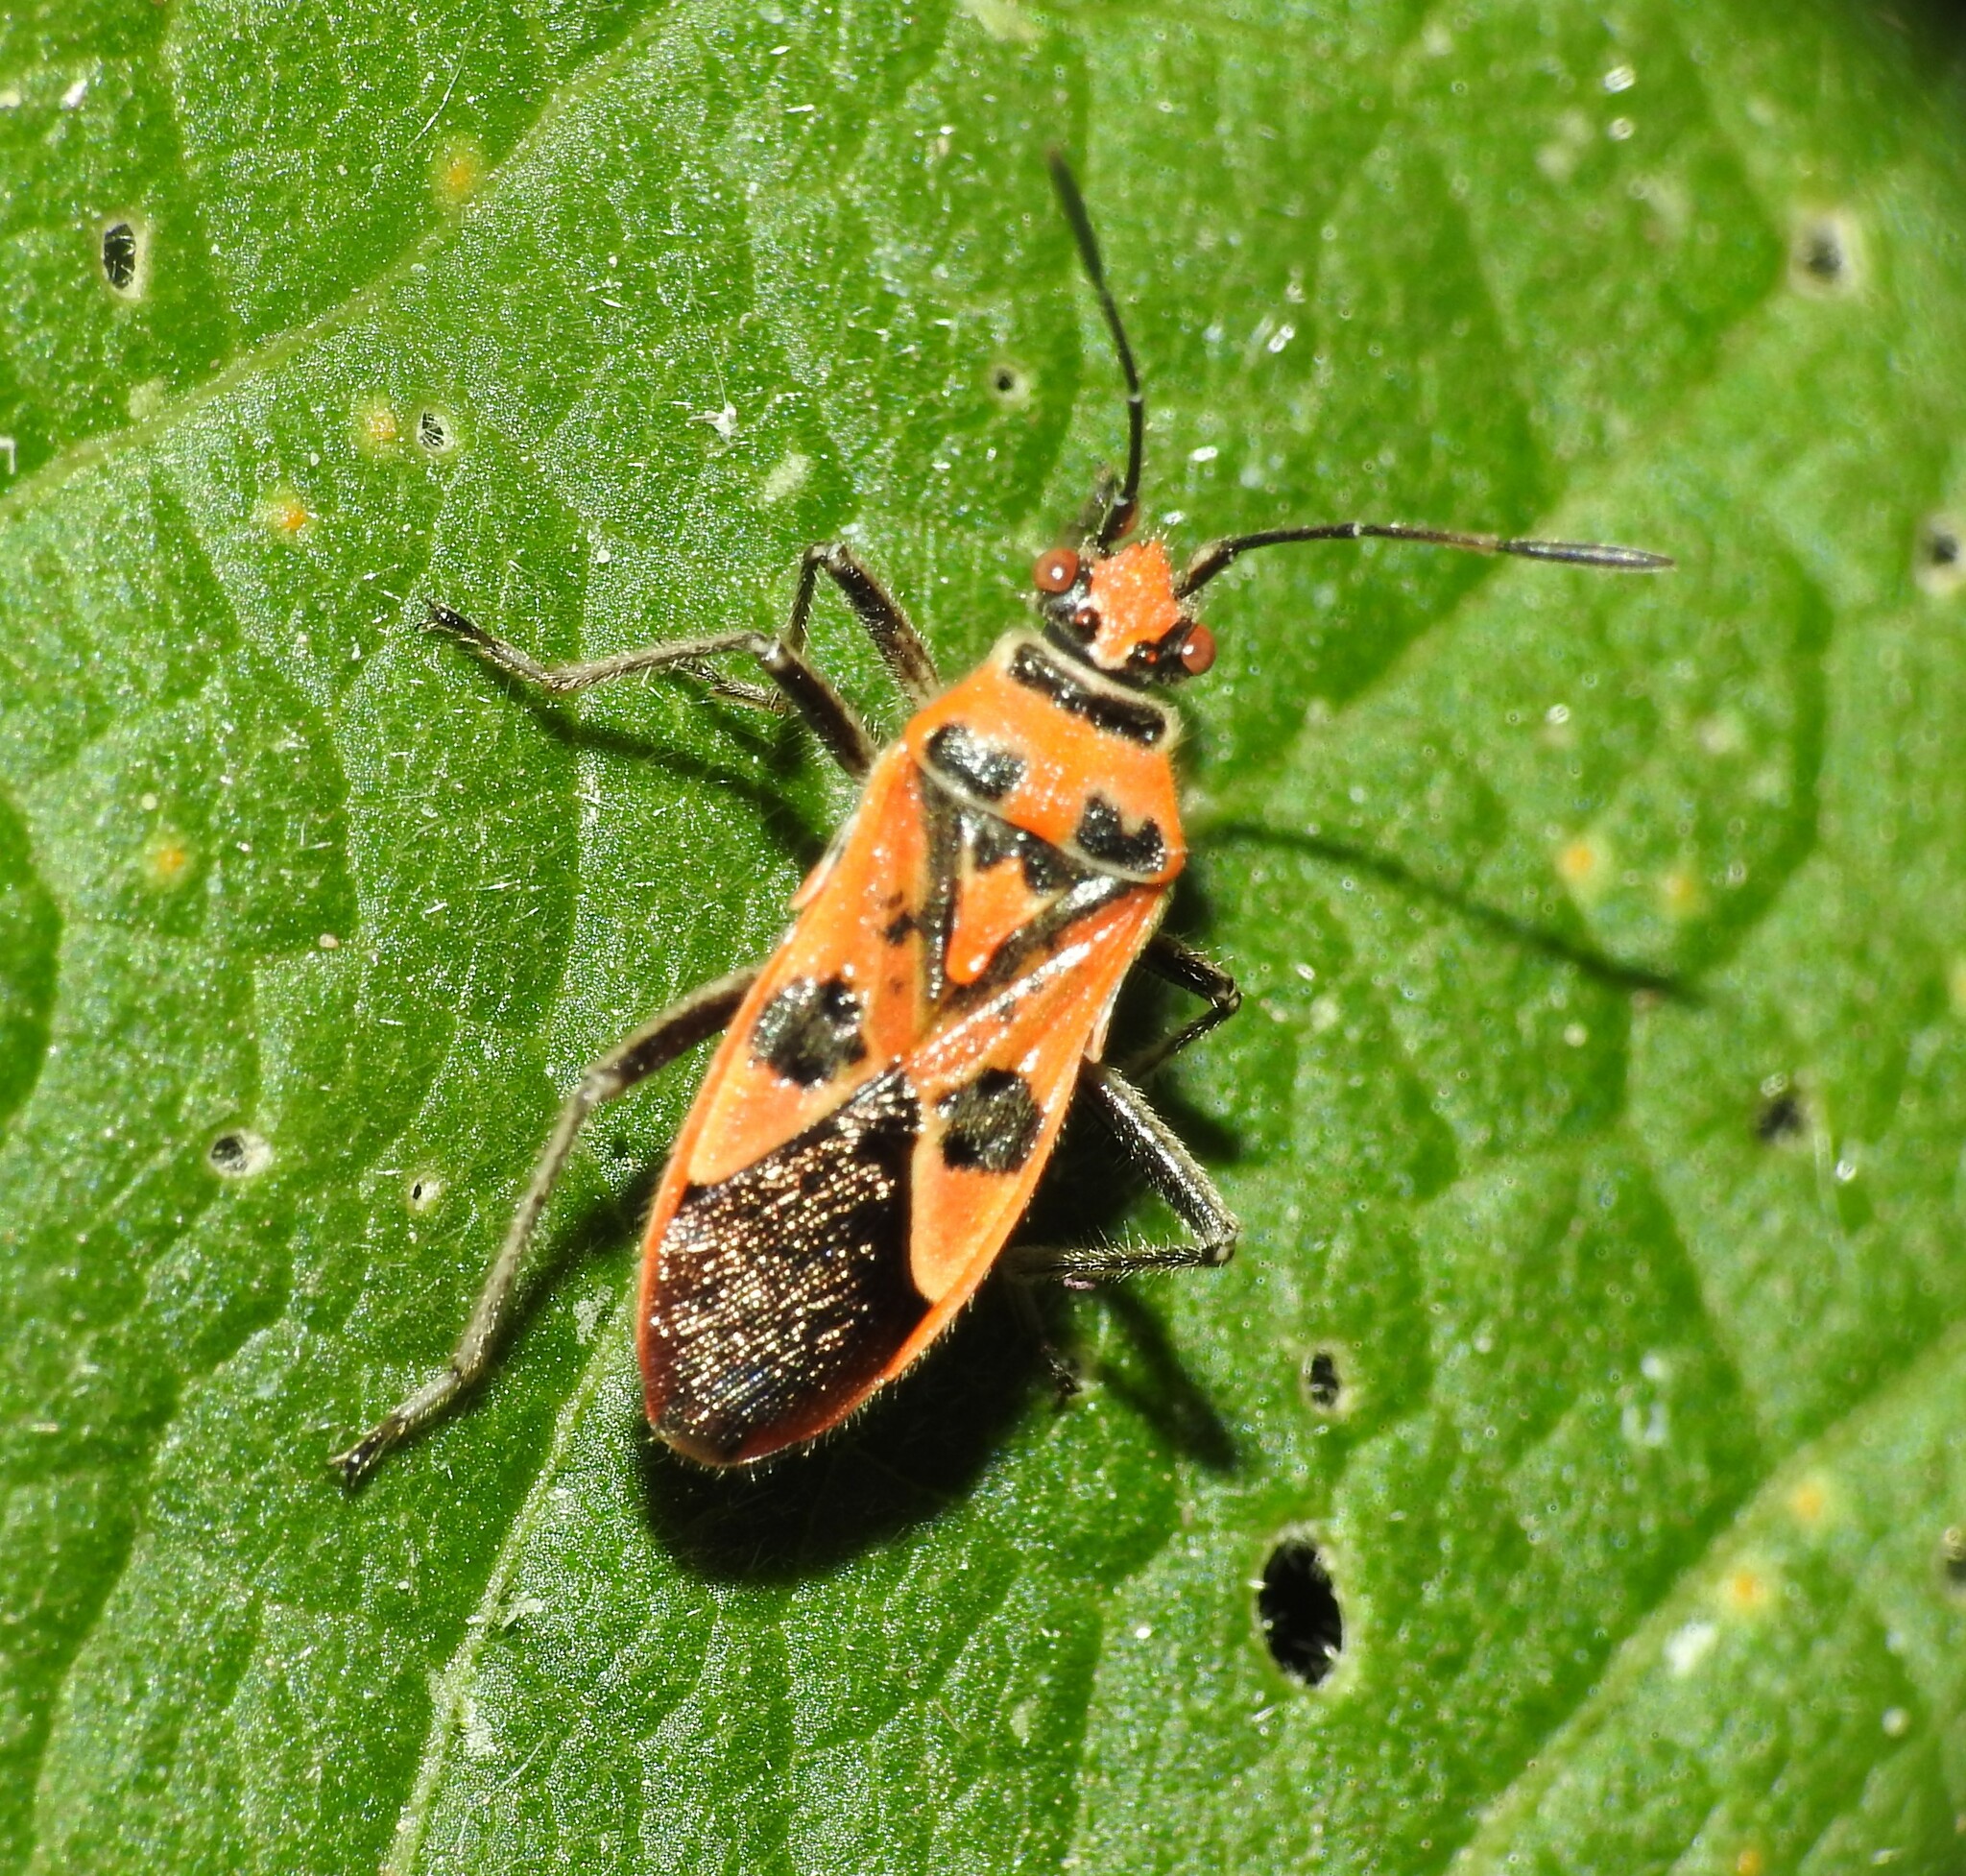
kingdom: Animalia
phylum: Arthropoda
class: Insecta
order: Hemiptera
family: Rhopalidae
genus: Corizus
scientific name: Corizus hyoscyami
